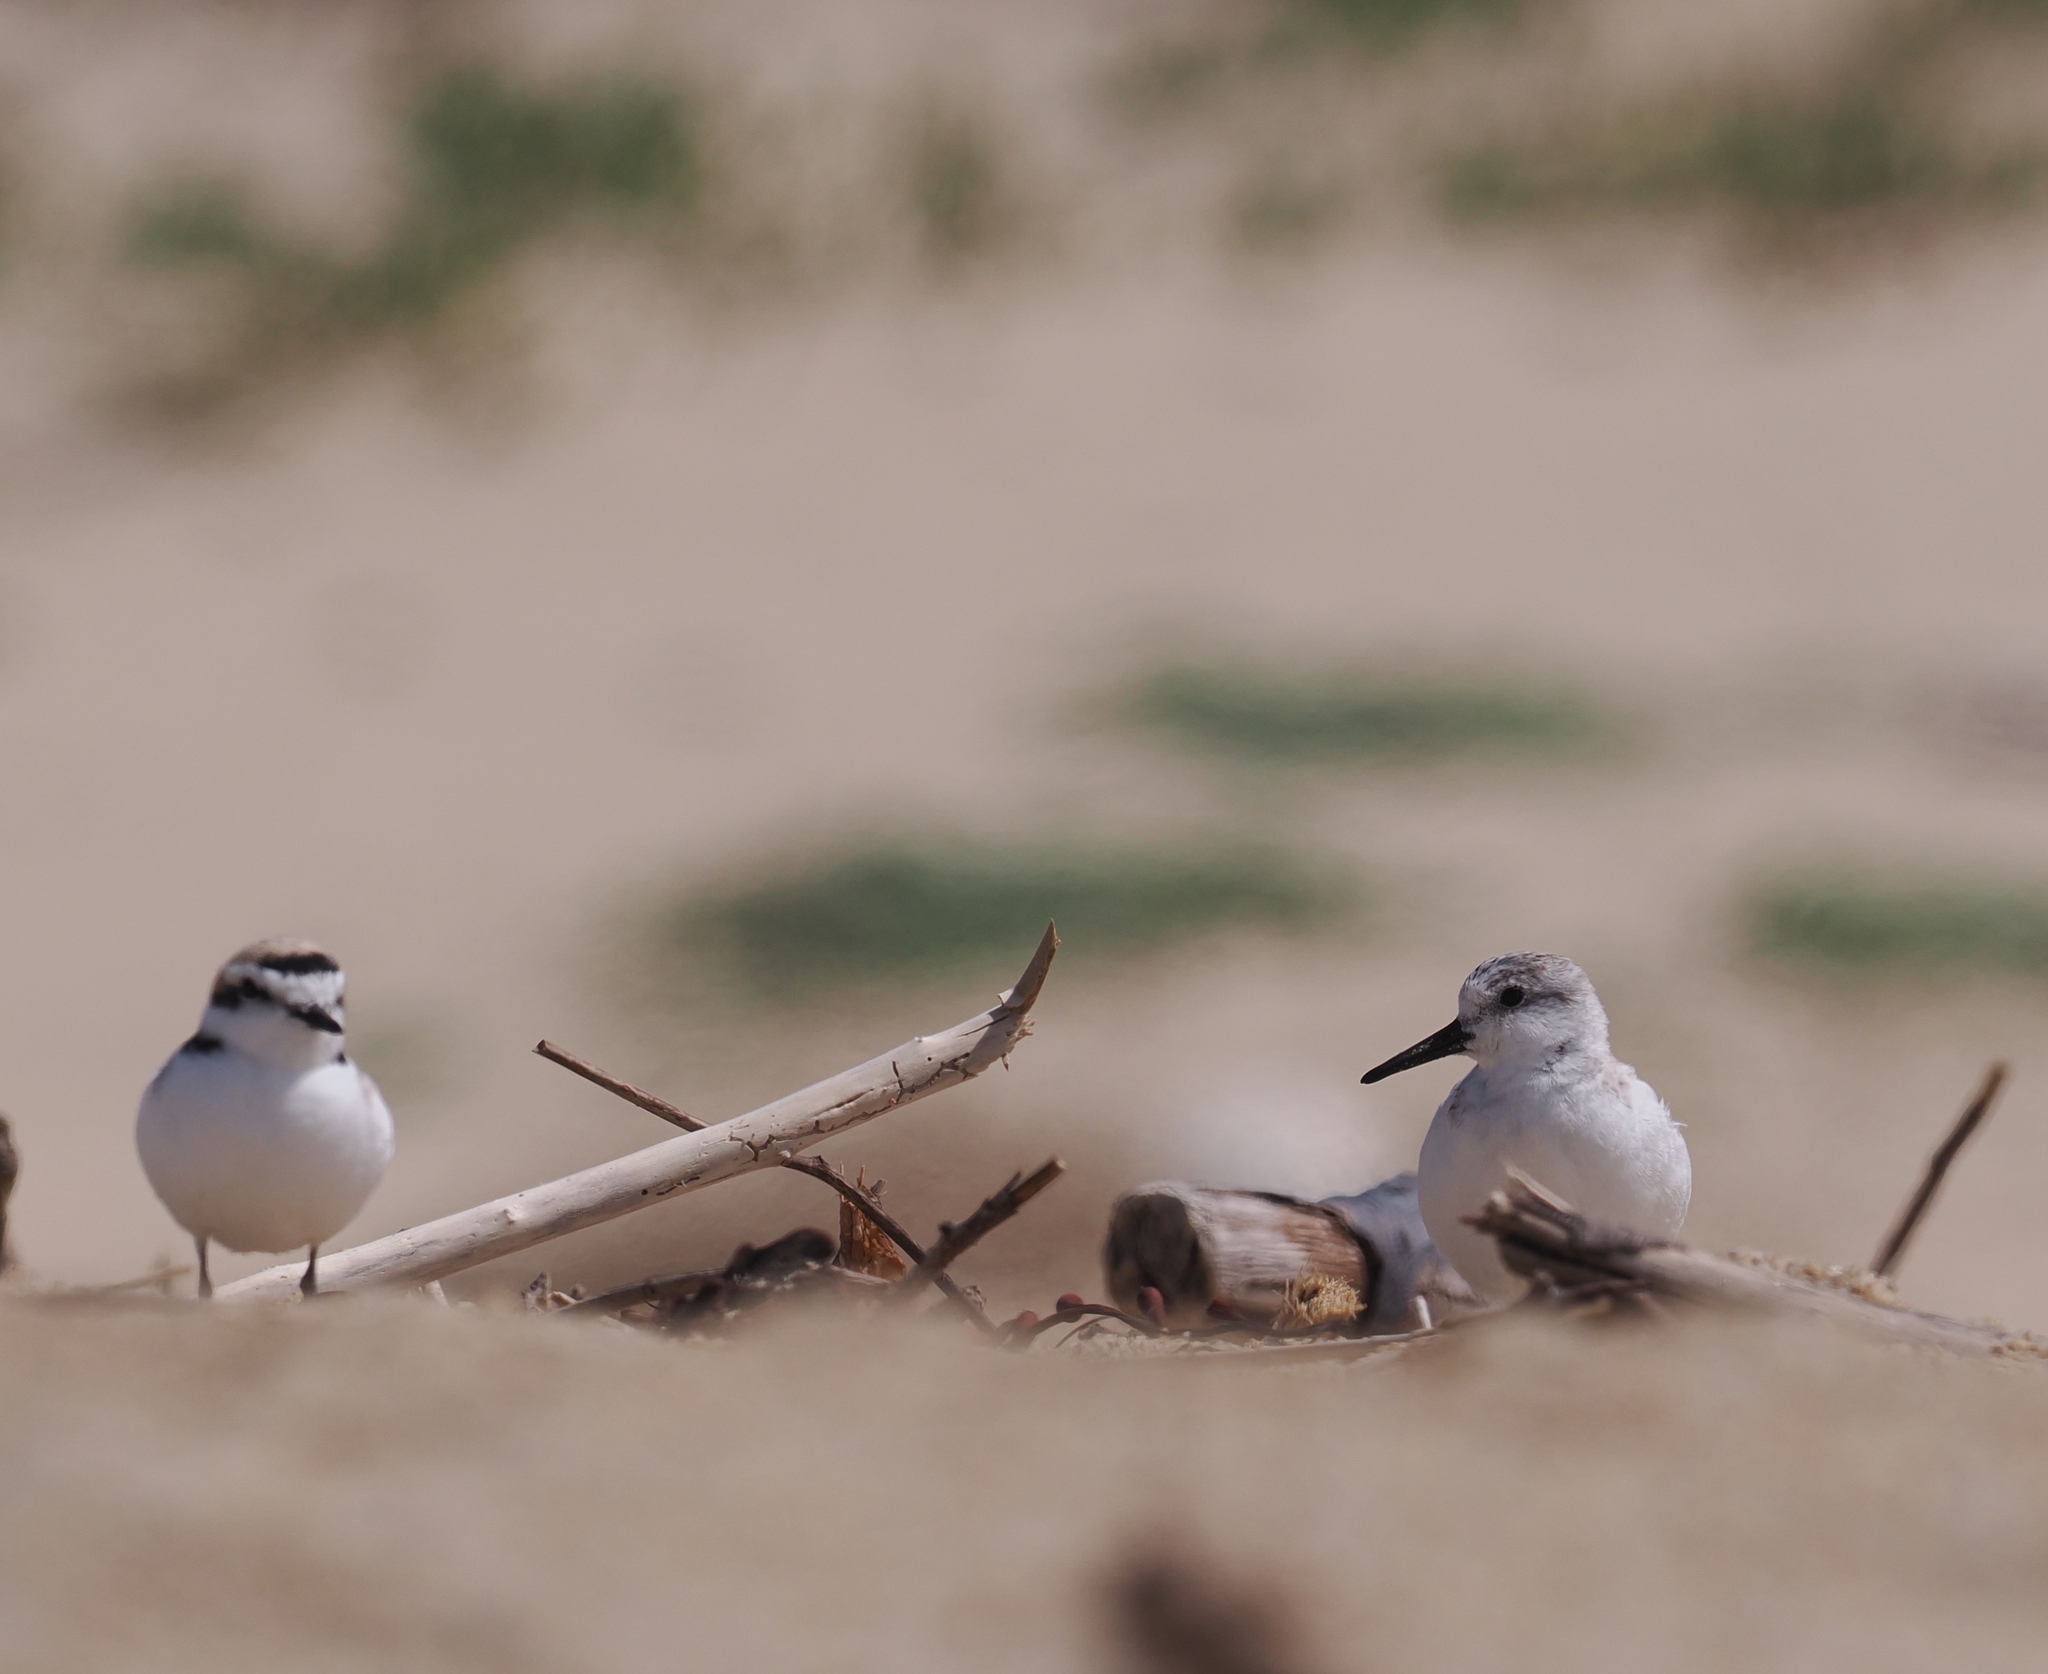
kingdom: Animalia
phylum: Chordata
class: Aves
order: Charadriiformes
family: Charadriidae
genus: Anarhynchus
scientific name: Anarhynchus
